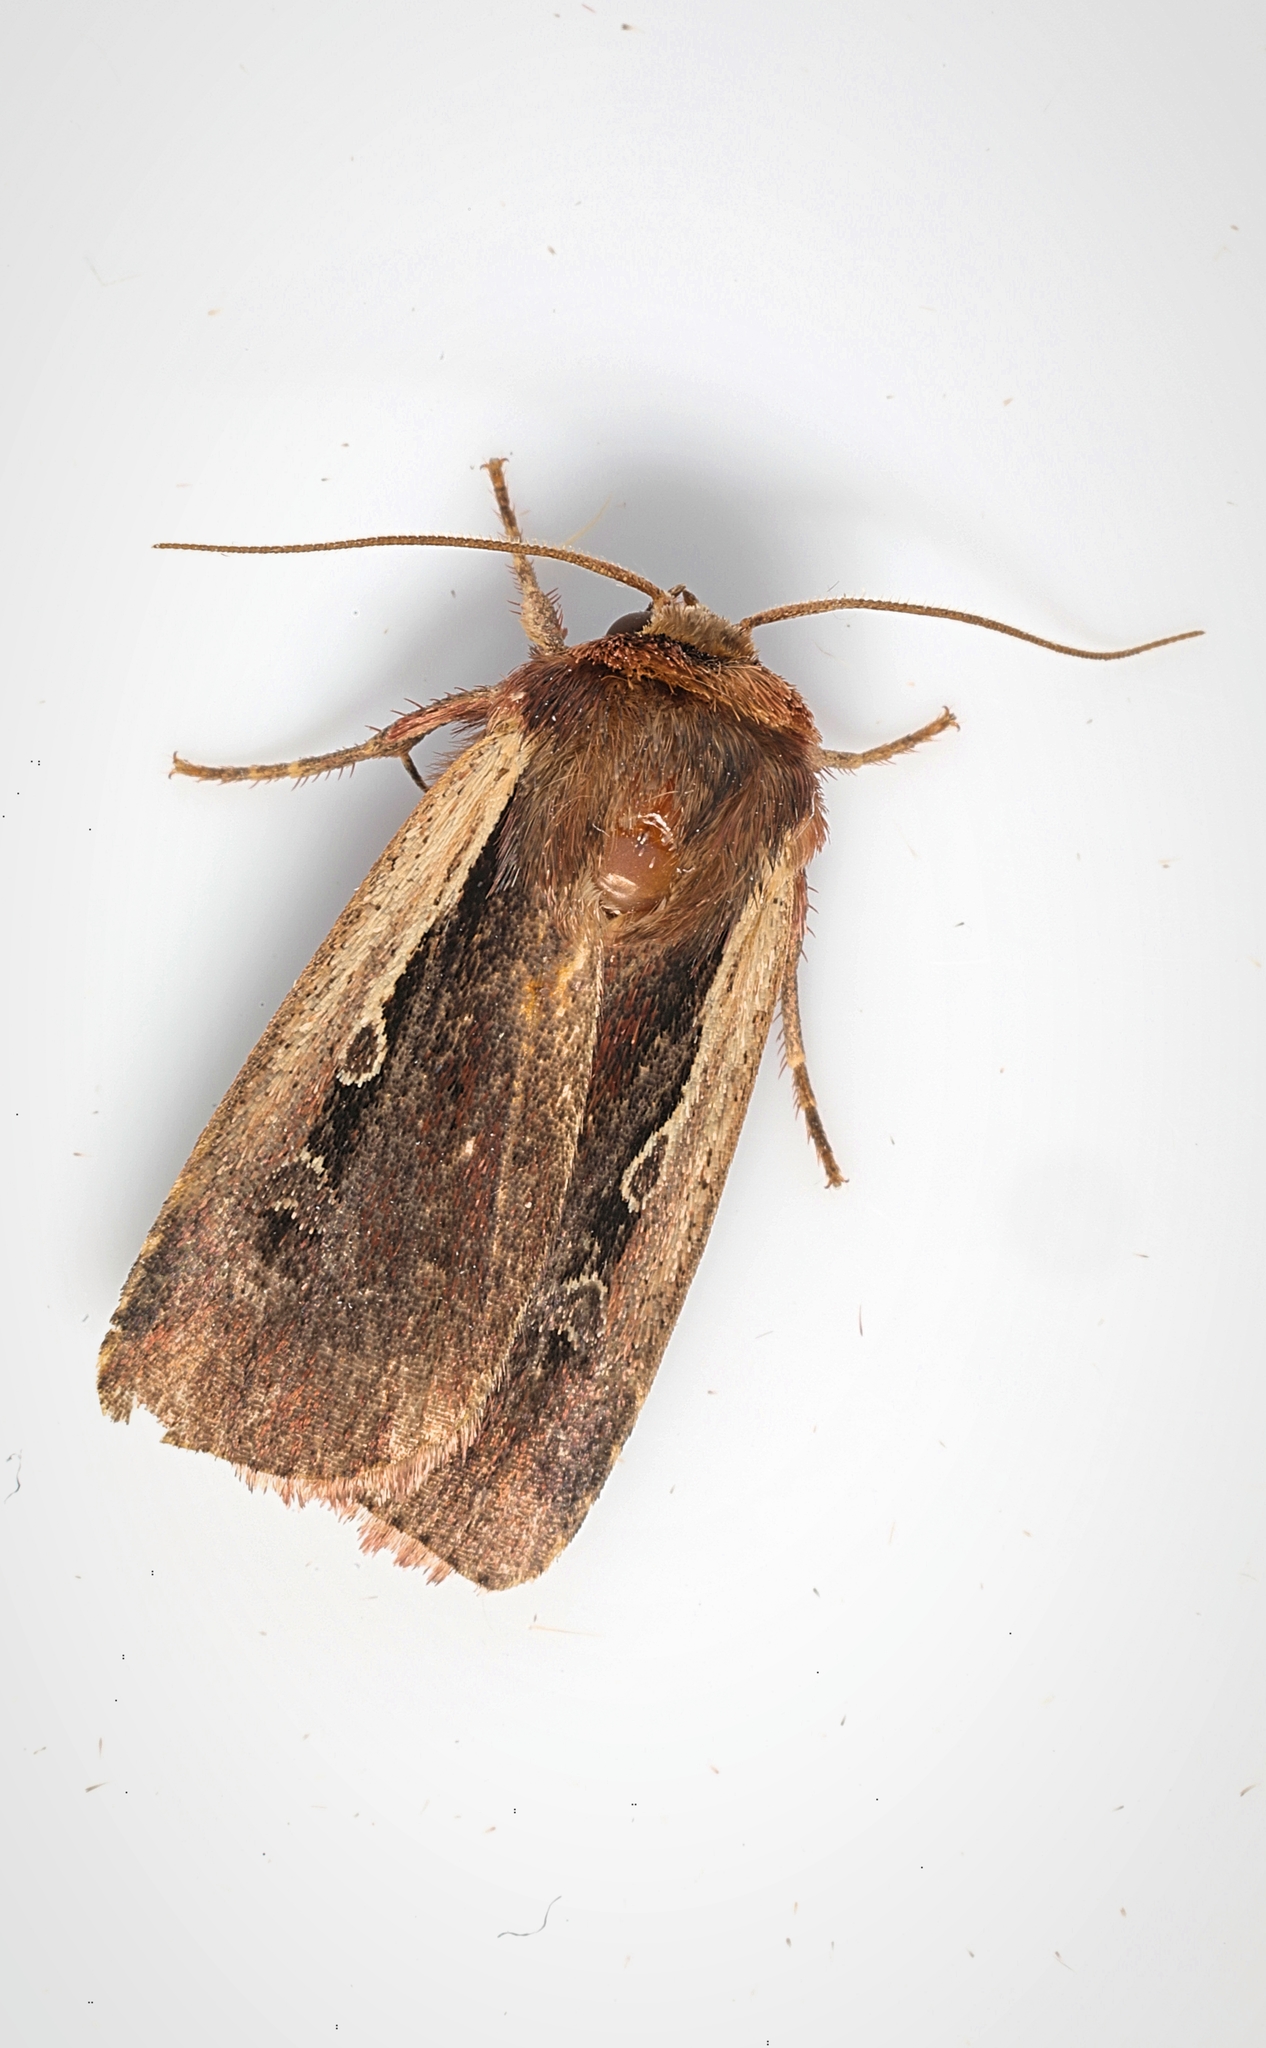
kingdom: Animalia
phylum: Arthropoda
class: Insecta
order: Lepidoptera
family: Noctuidae
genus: Ochropleura
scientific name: Ochropleura plecta
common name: Flame shoulder
